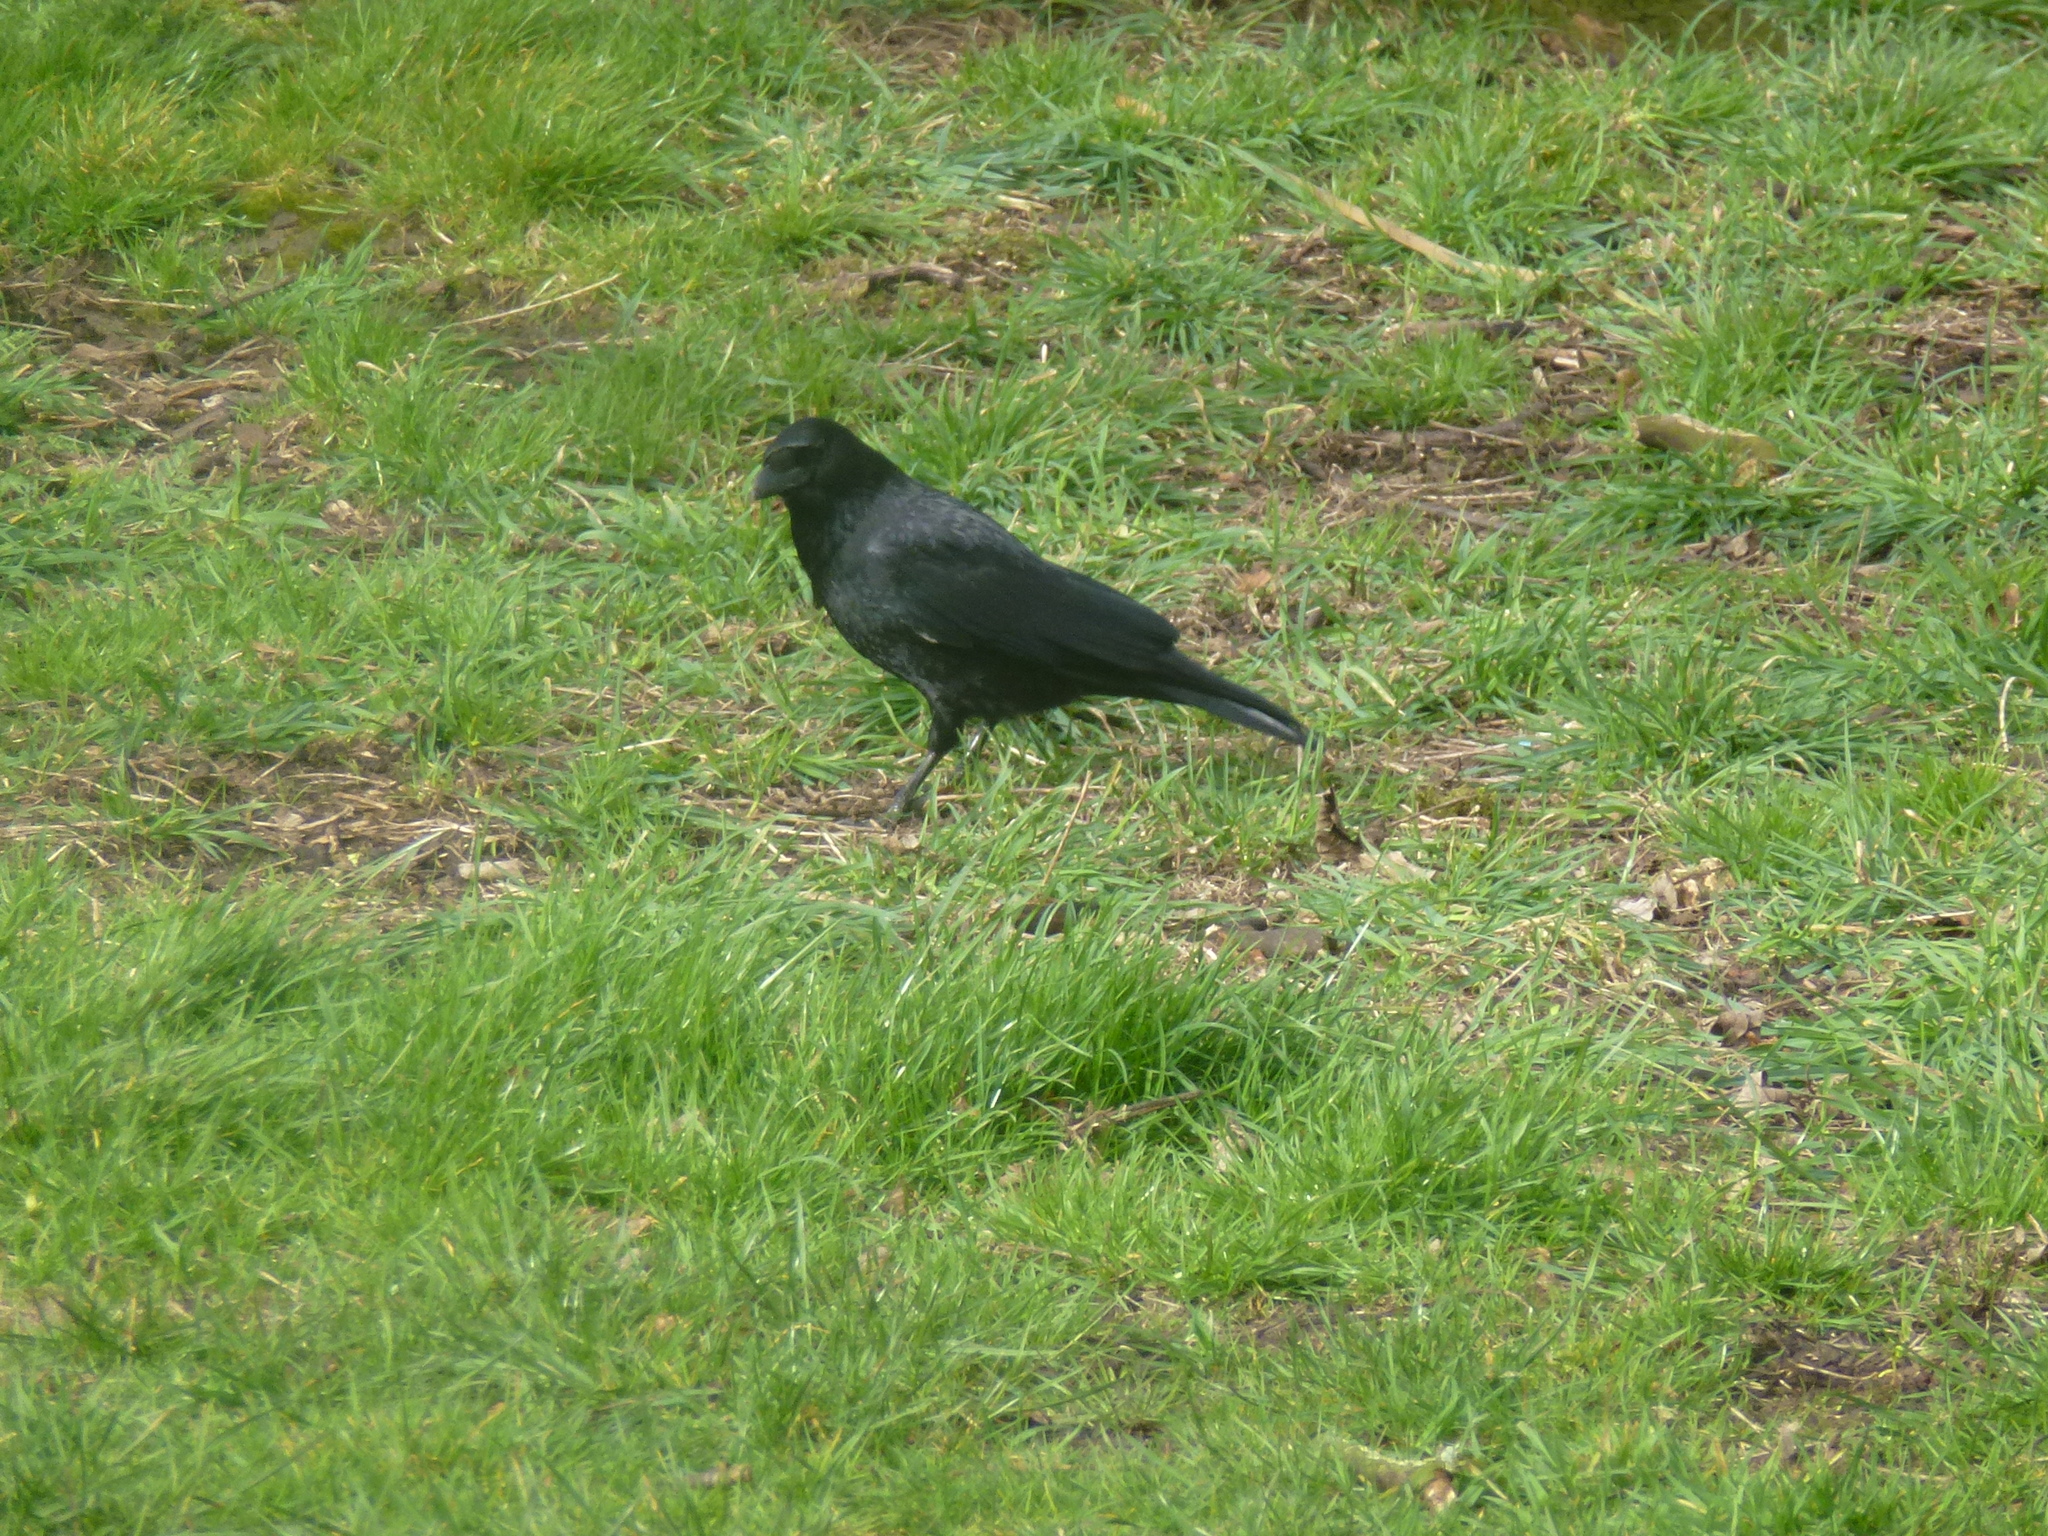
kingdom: Animalia
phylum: Chordata
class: Aves
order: Passeriformes
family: Corvidae
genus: Corvus
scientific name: Corvus corone
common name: Carrion crow
